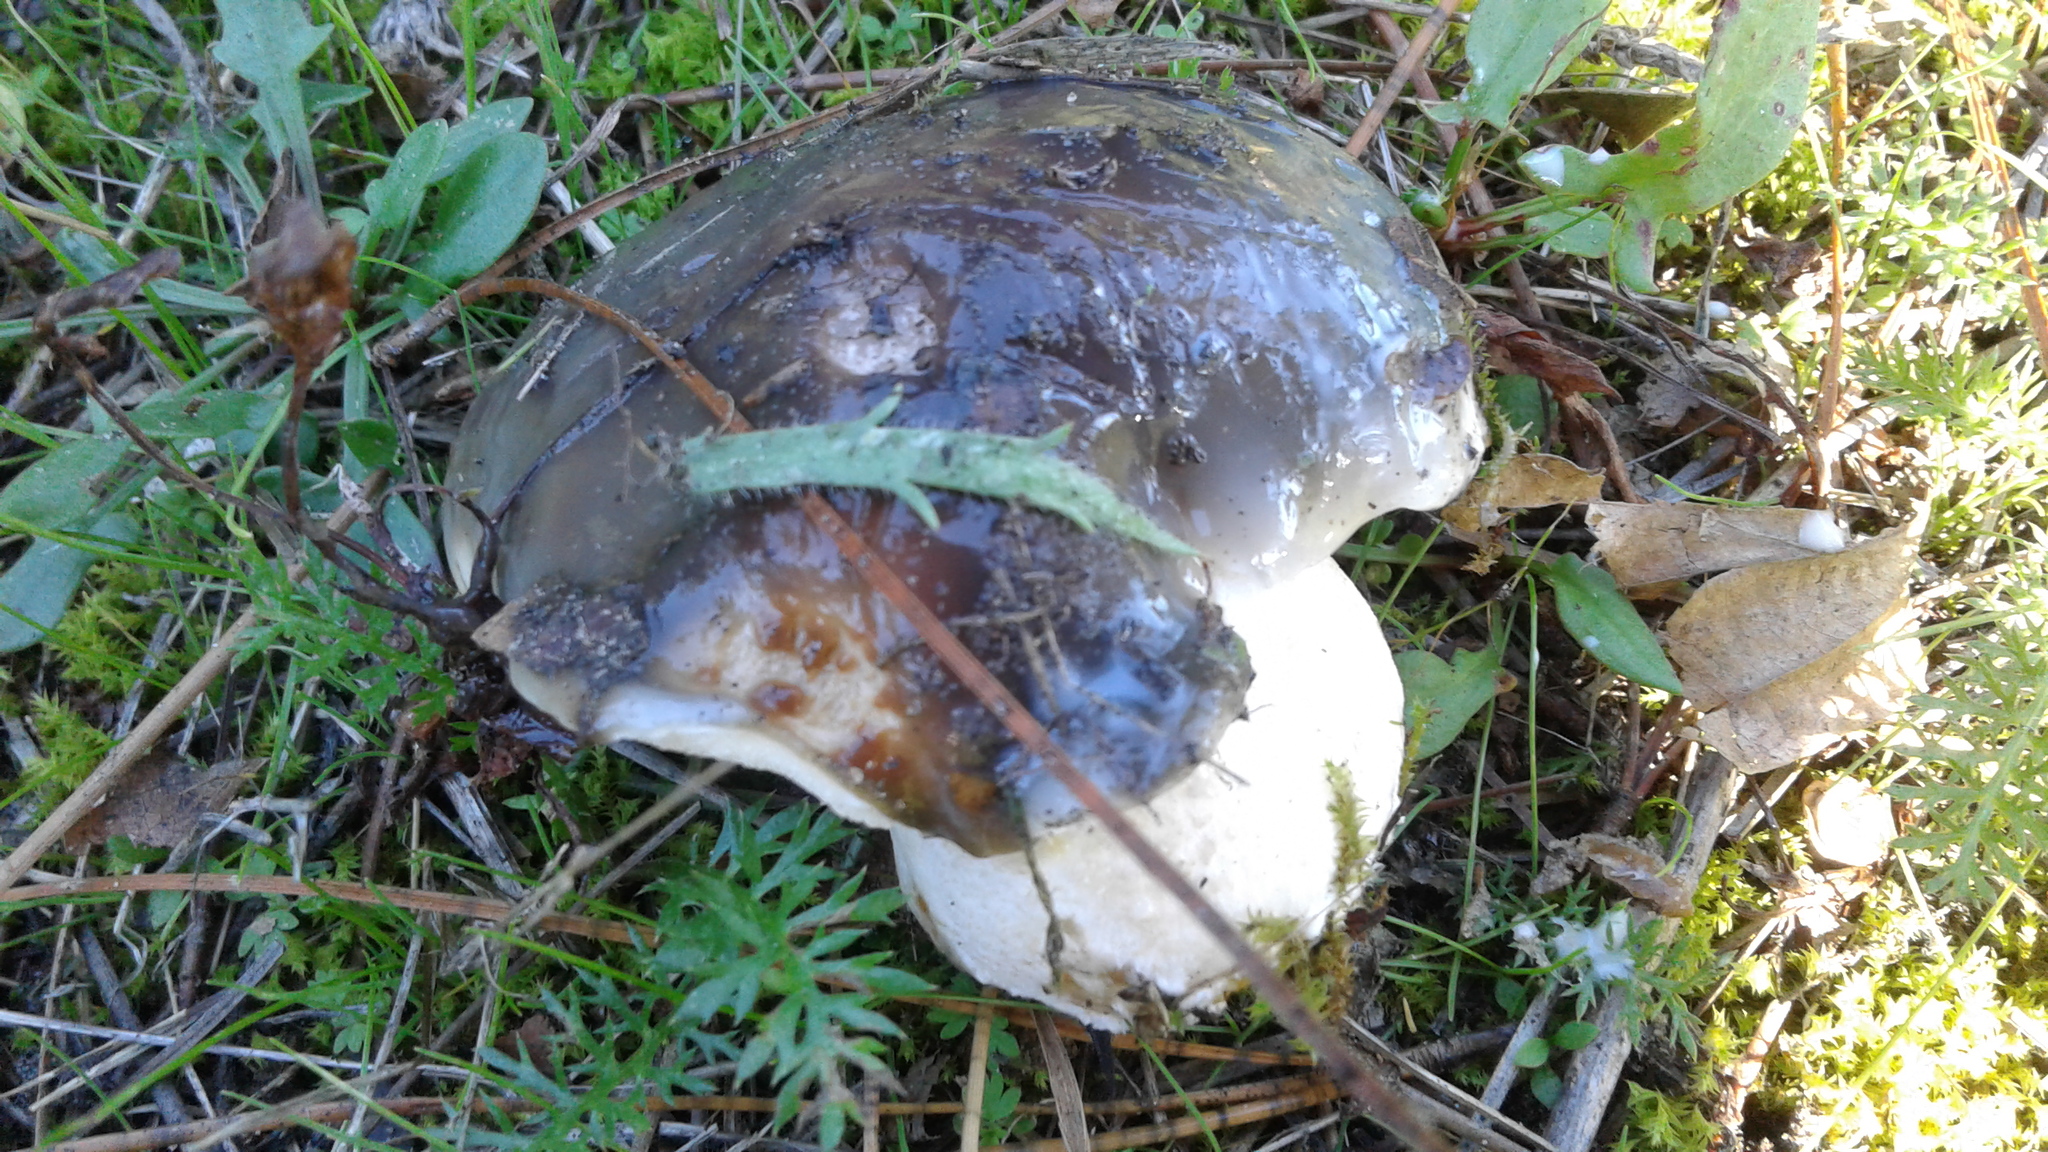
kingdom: Fungi
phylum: Basidiomycota
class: Agaricomycetes
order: Boletales
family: Suillaceae
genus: Suillus
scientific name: Suillus pungens
